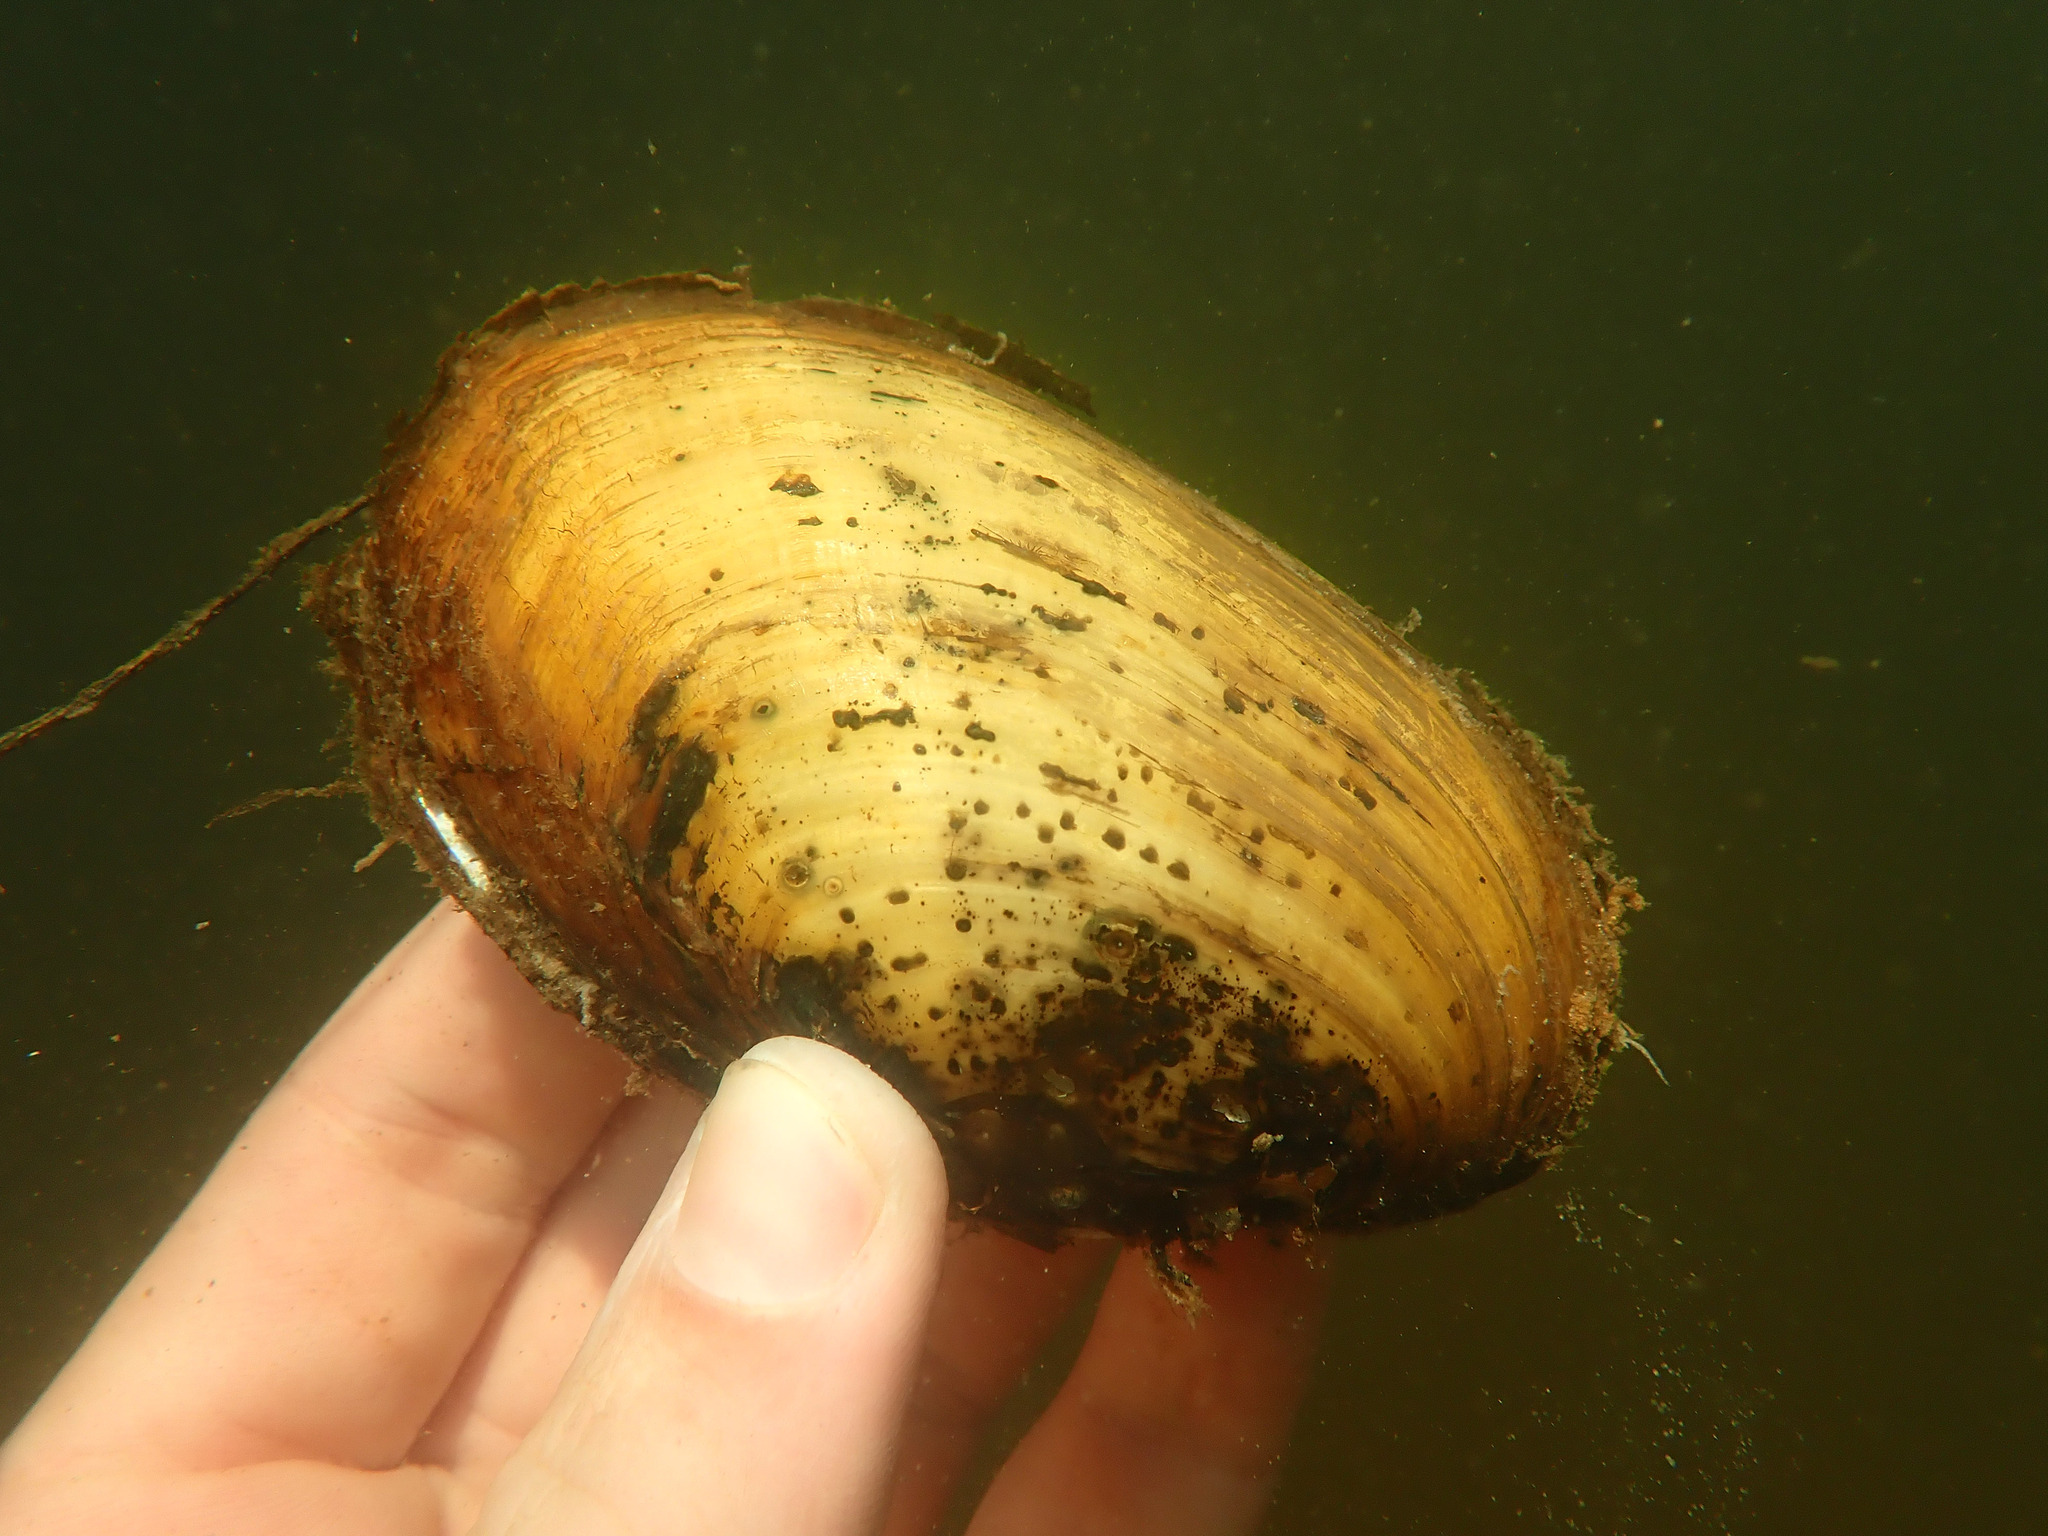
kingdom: Animalia
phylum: Mollusca
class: Bivalvia
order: Unionida
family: Unionidae
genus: Lampsilis
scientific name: Lampsilis straminea
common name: Rough fatmucket
